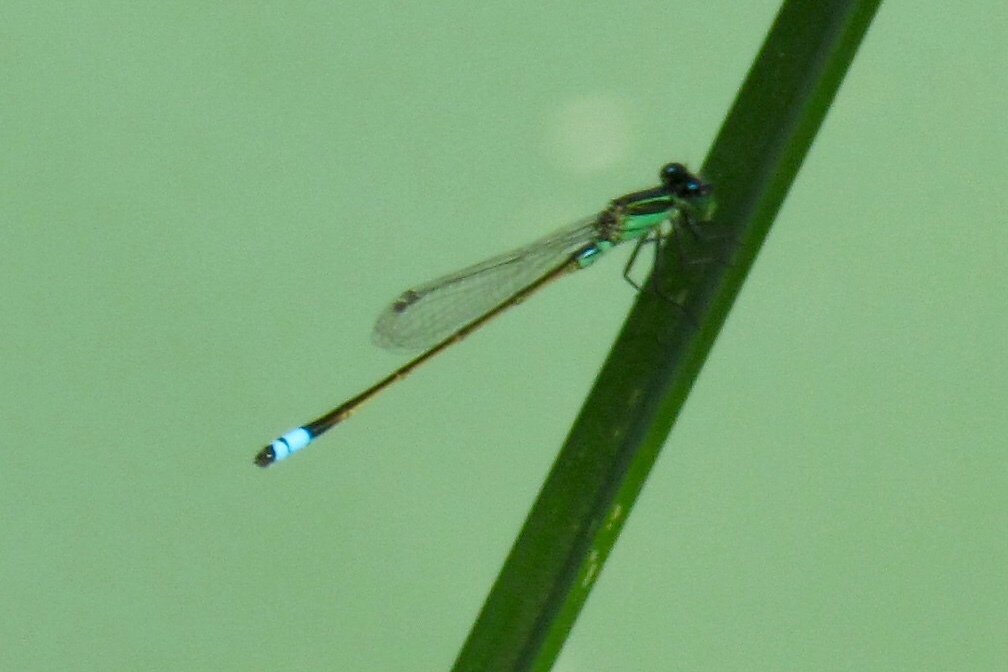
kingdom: Animalia
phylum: Arthropoda
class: Insecta
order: Odonata
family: Coenagrionidae
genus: Ischnura
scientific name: Ischnura ramburii
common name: Rambur's forktail
